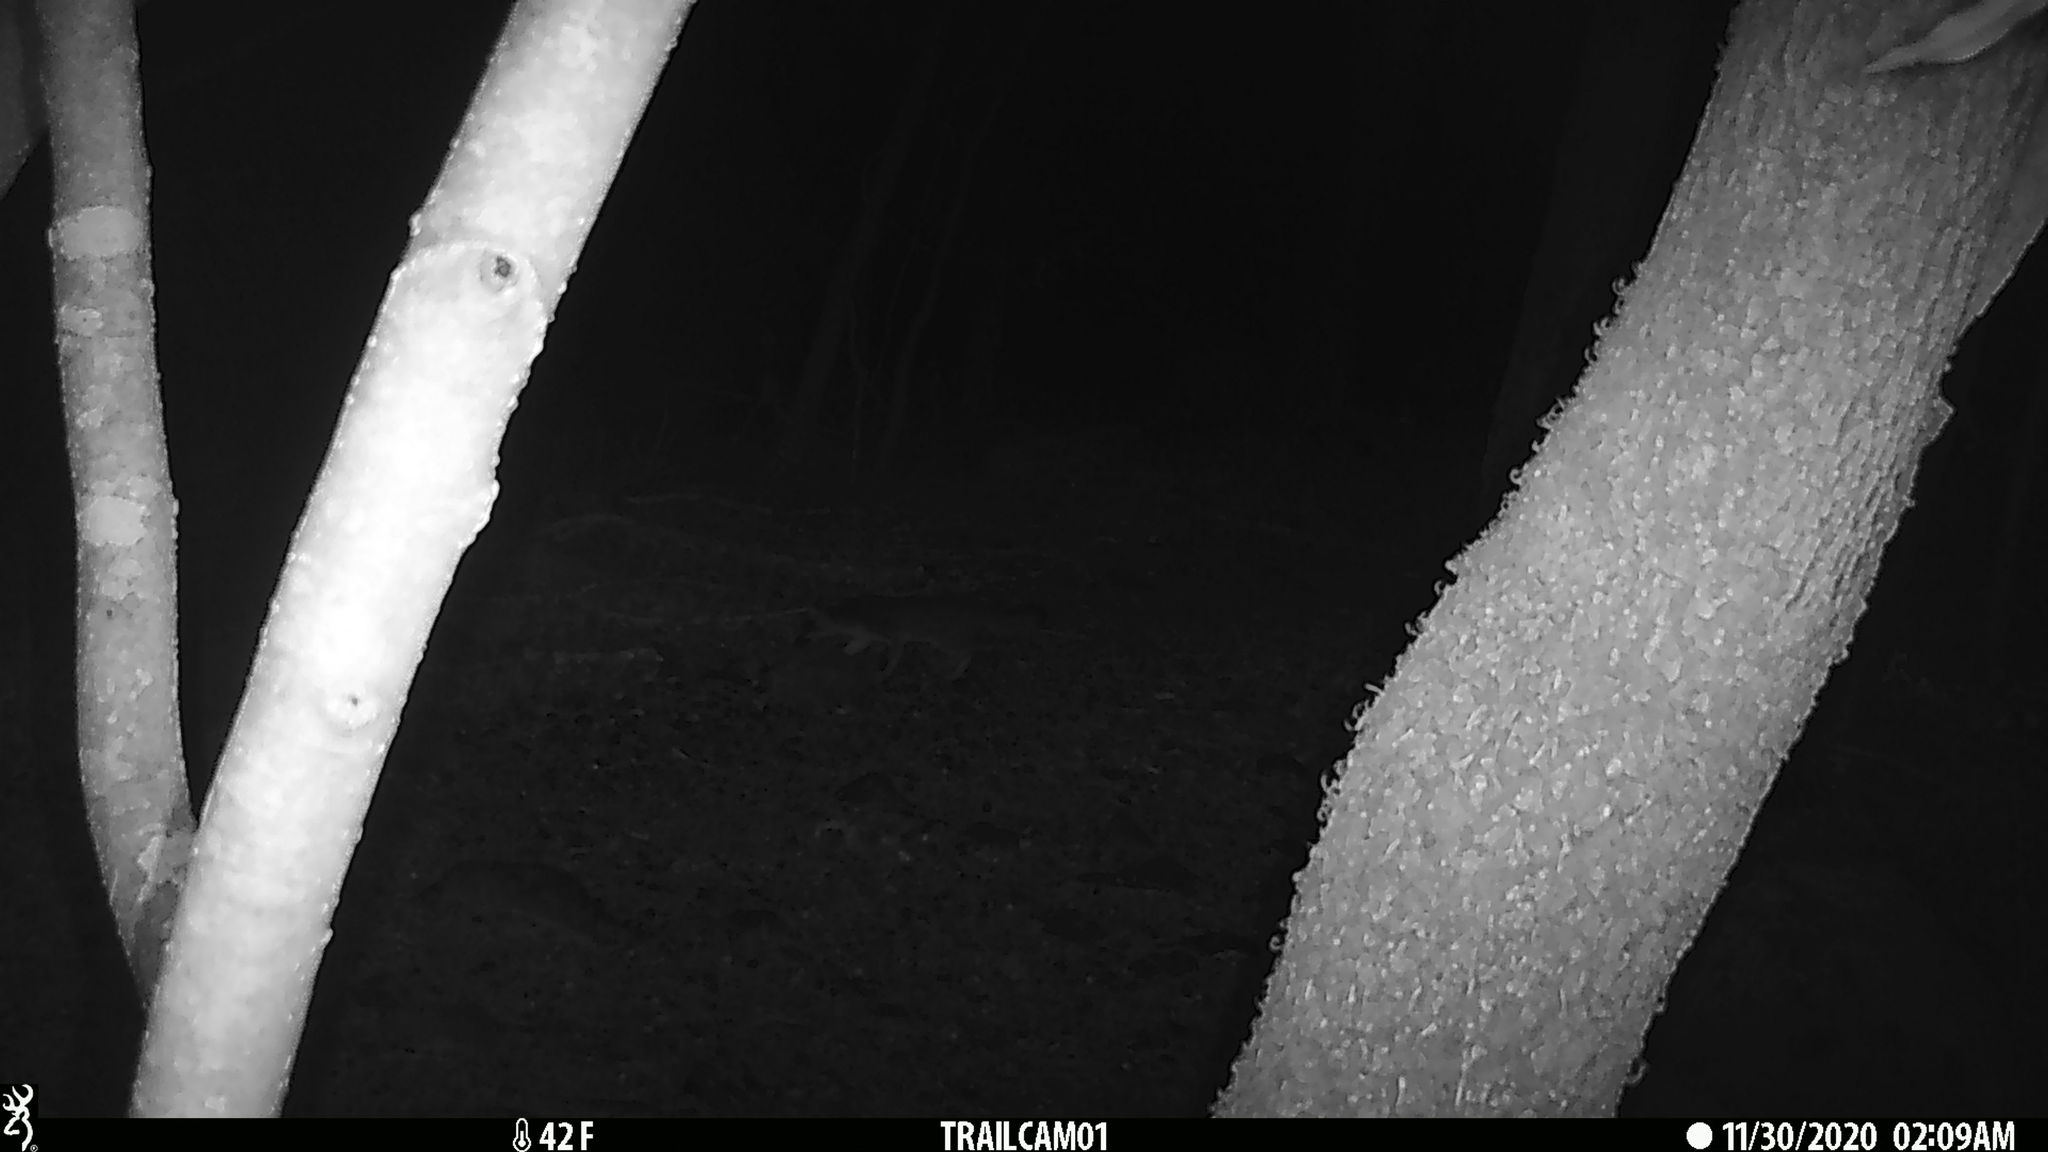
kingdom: Animalia
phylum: Chordata
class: Mammalia
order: Carnivora
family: Canidae
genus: Urocyon
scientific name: Urocyon cinereoargenteus
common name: Gray fox
